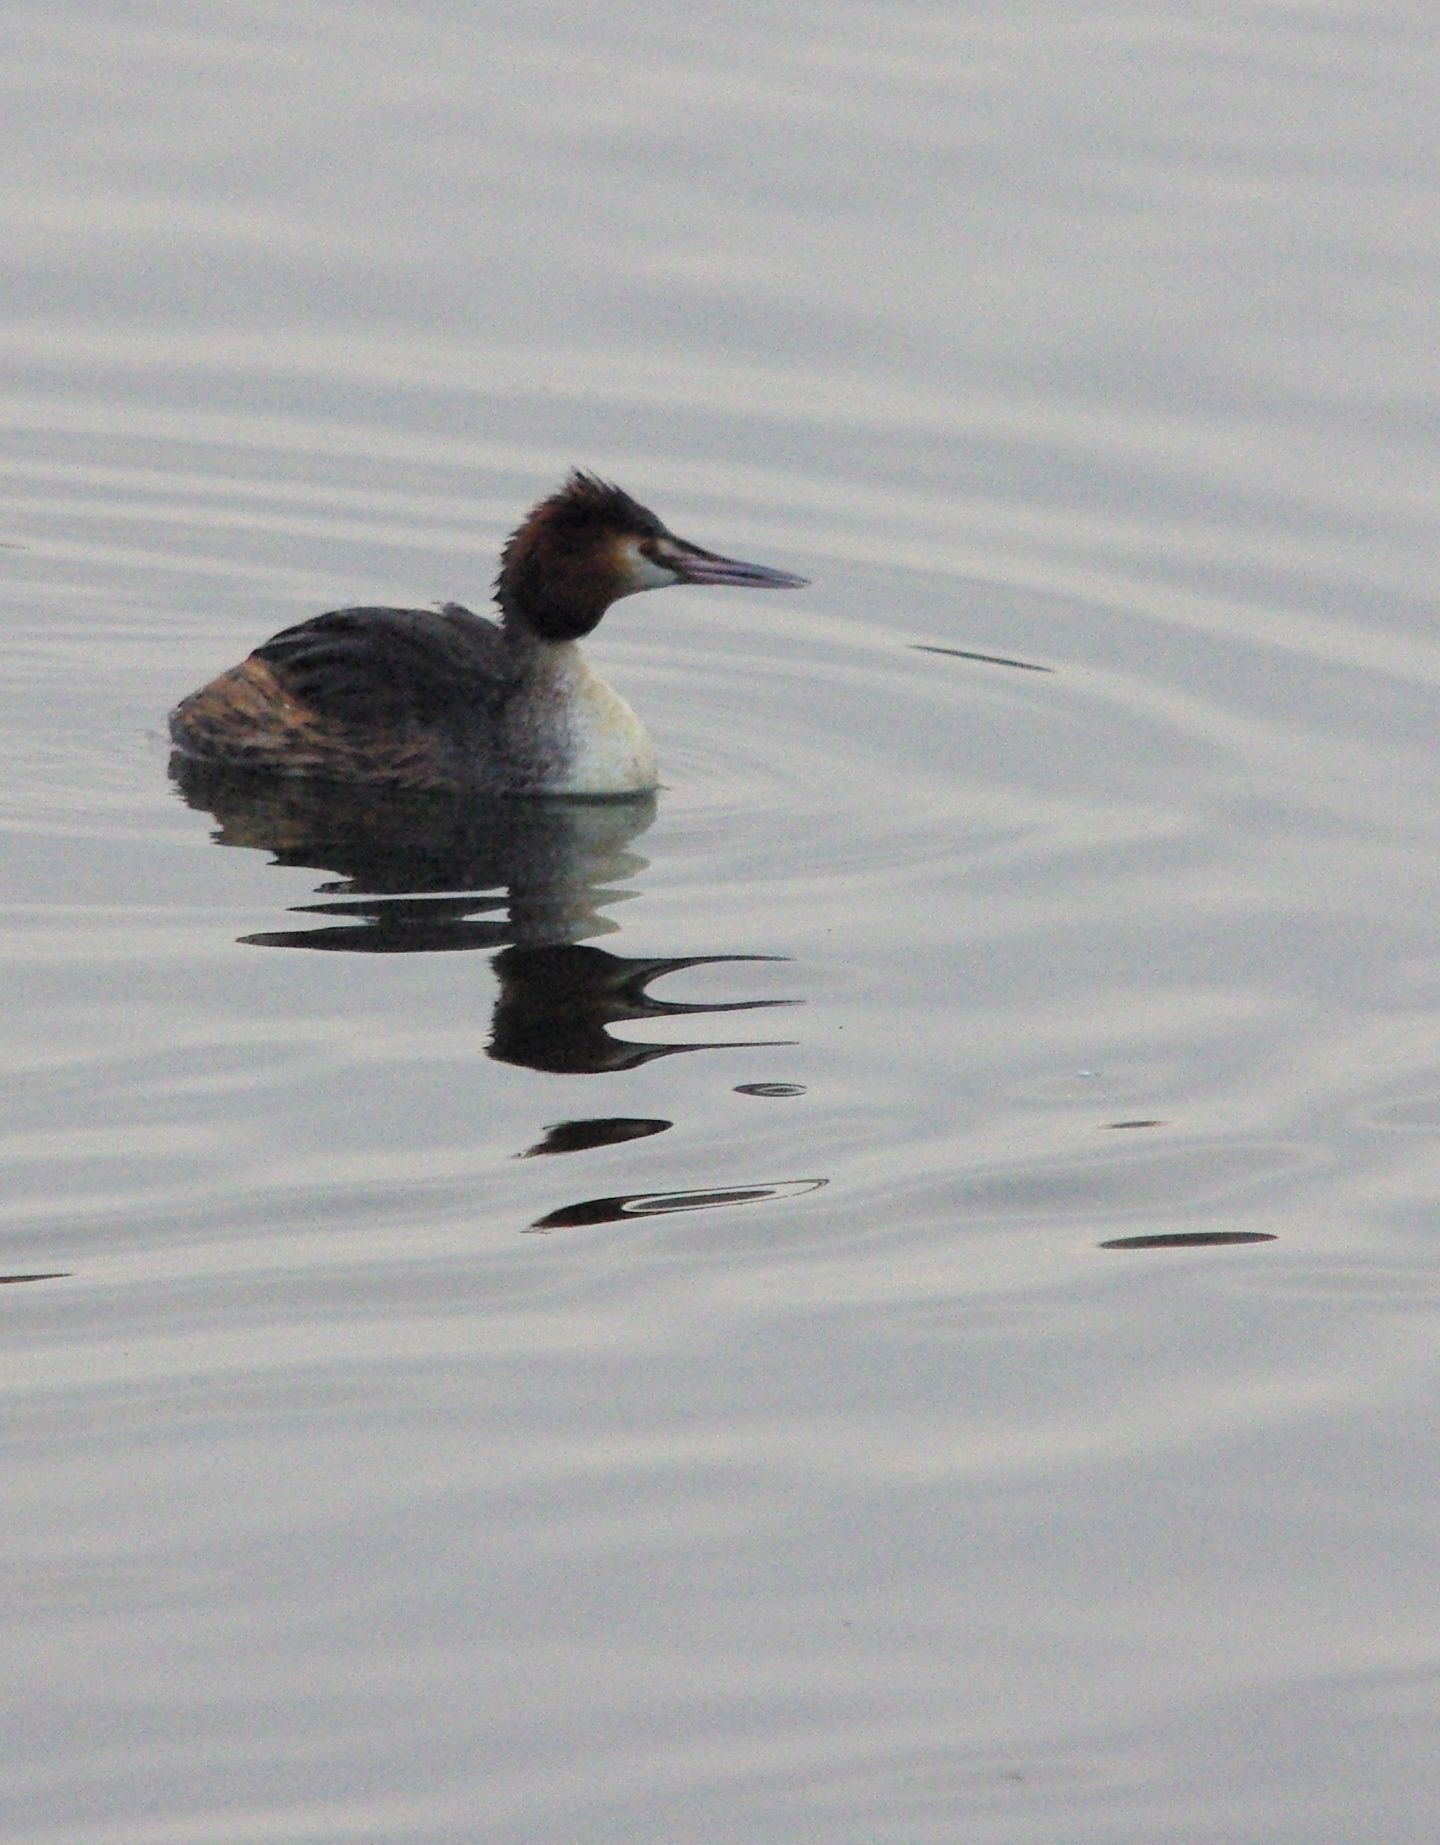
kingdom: Animalia
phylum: Chordata
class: Aves
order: Podicipediformes
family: Podicipedidae
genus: Podiceps
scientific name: Podiceps cristatus
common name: Great crested grebe
